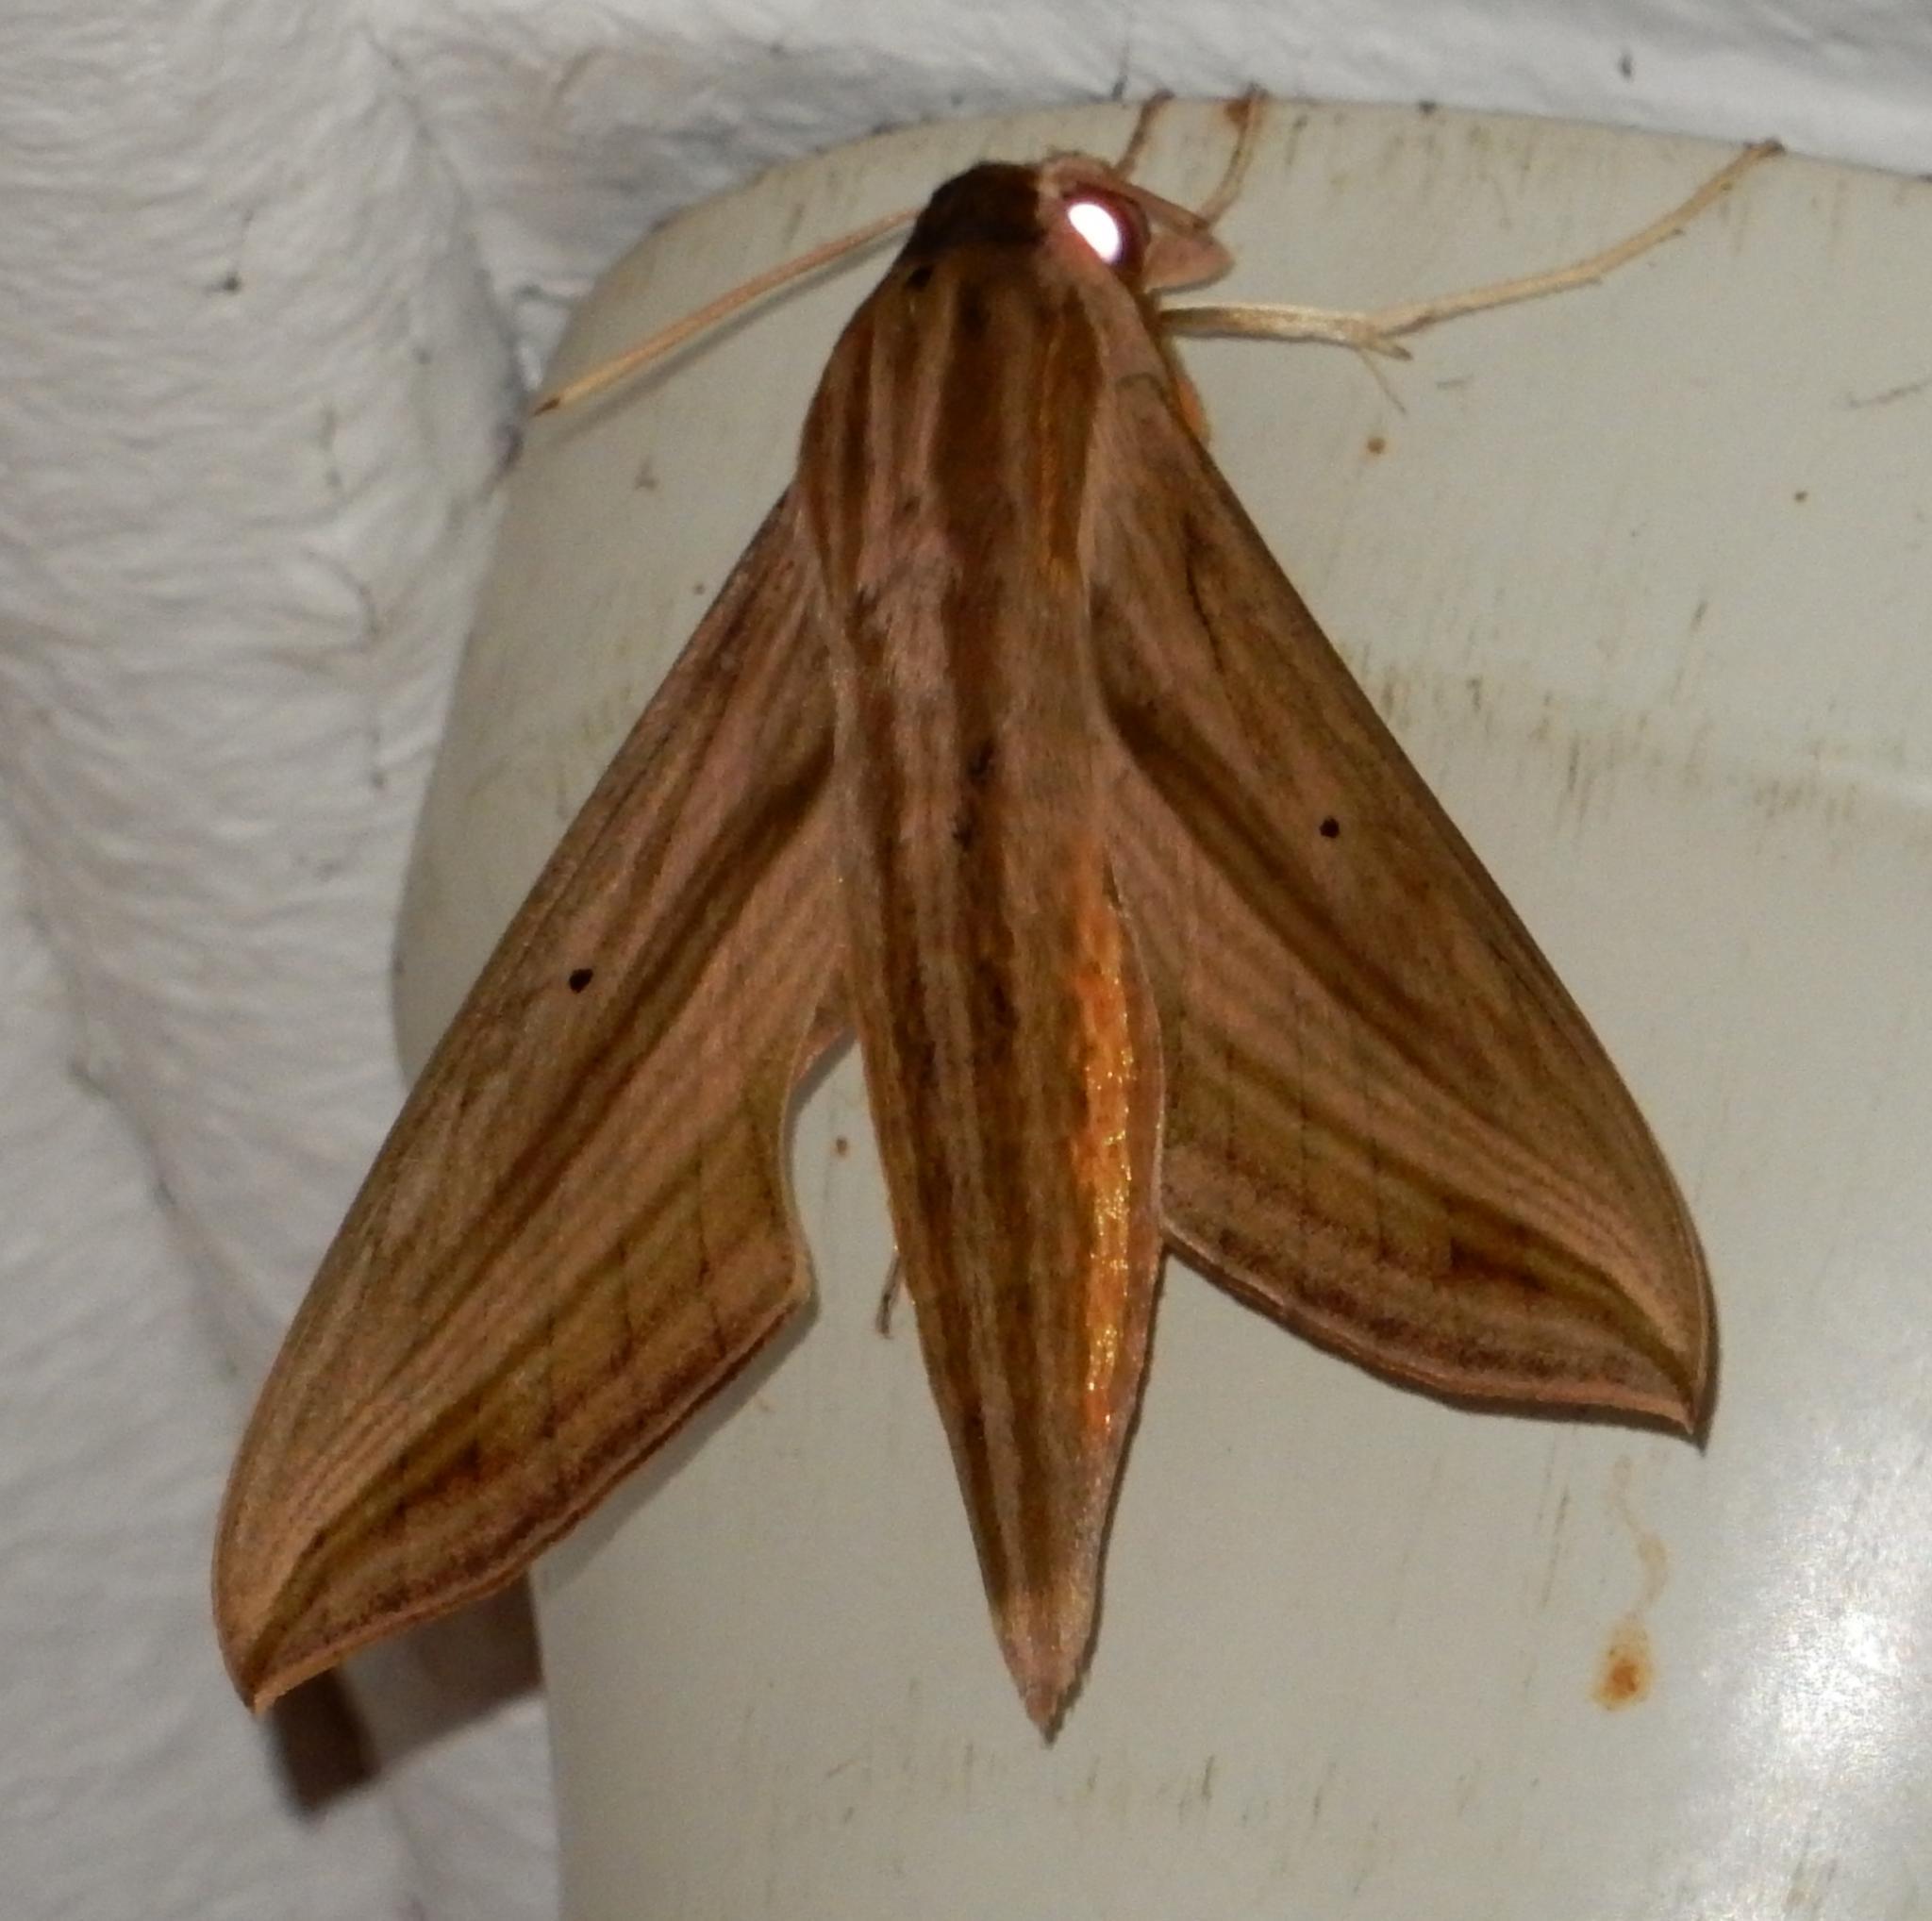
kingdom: Animalia
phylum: Arthropoda
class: Insecta
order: Lepidoptera
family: Sphingidae
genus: Hippotion
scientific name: Hippotion eson
